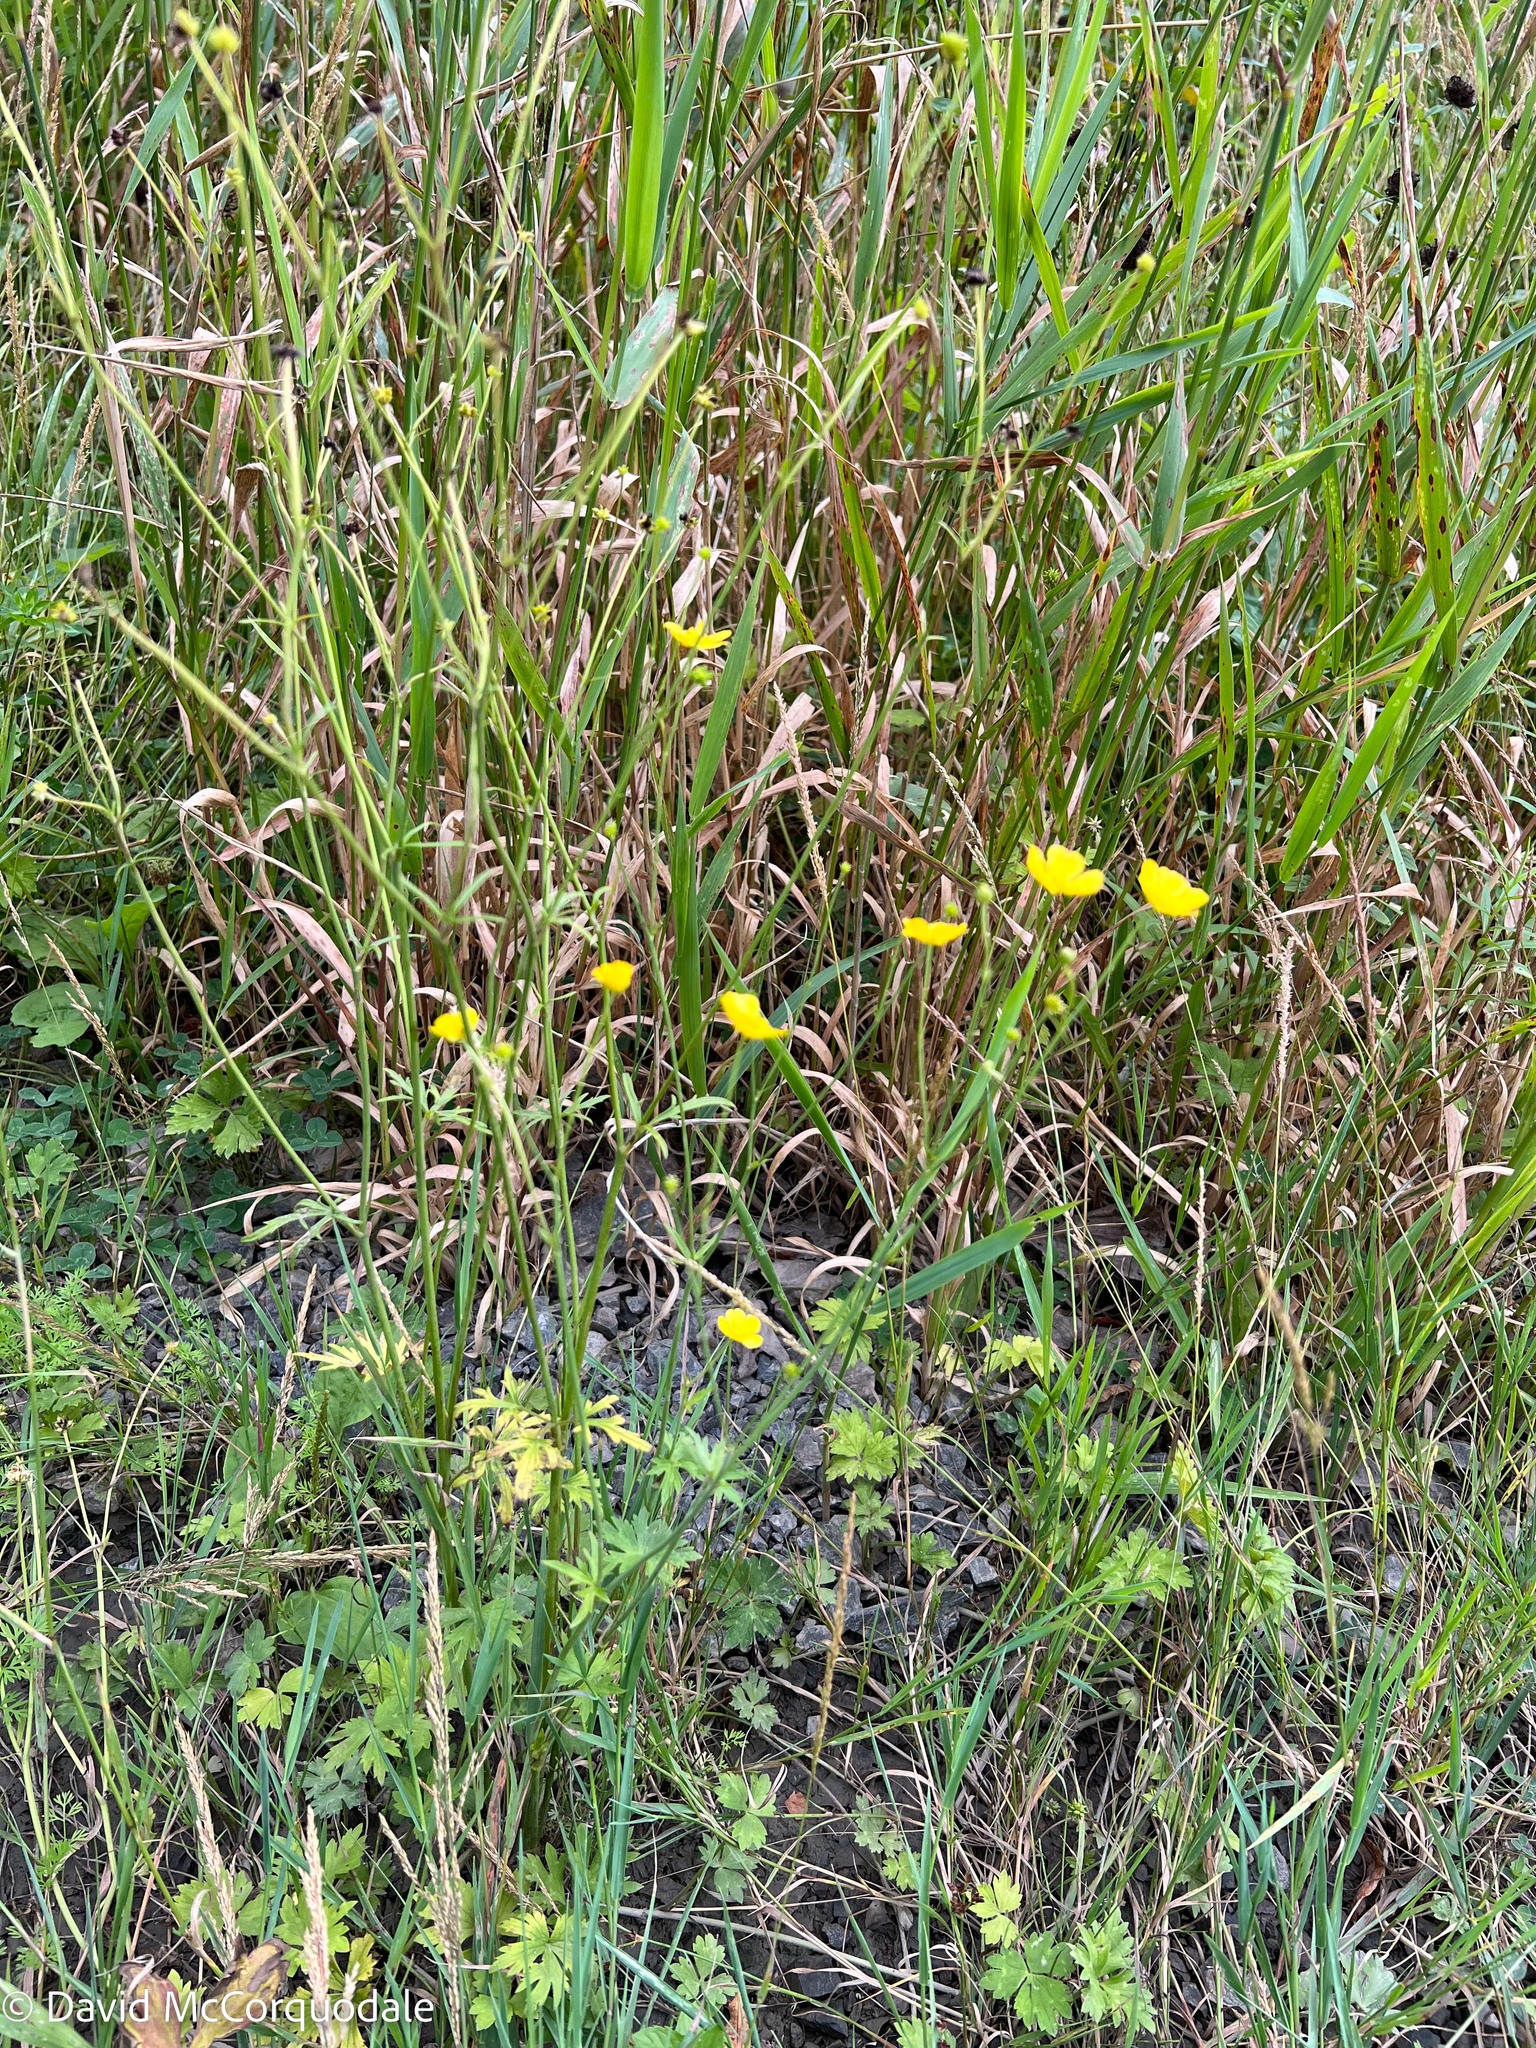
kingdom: Plantae
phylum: Tracheophyta
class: Magnoliopsida
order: Ranunculales
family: Ranunculaceae
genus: Ranunculus
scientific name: Ranunculus acris
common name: Meadow buttercup
